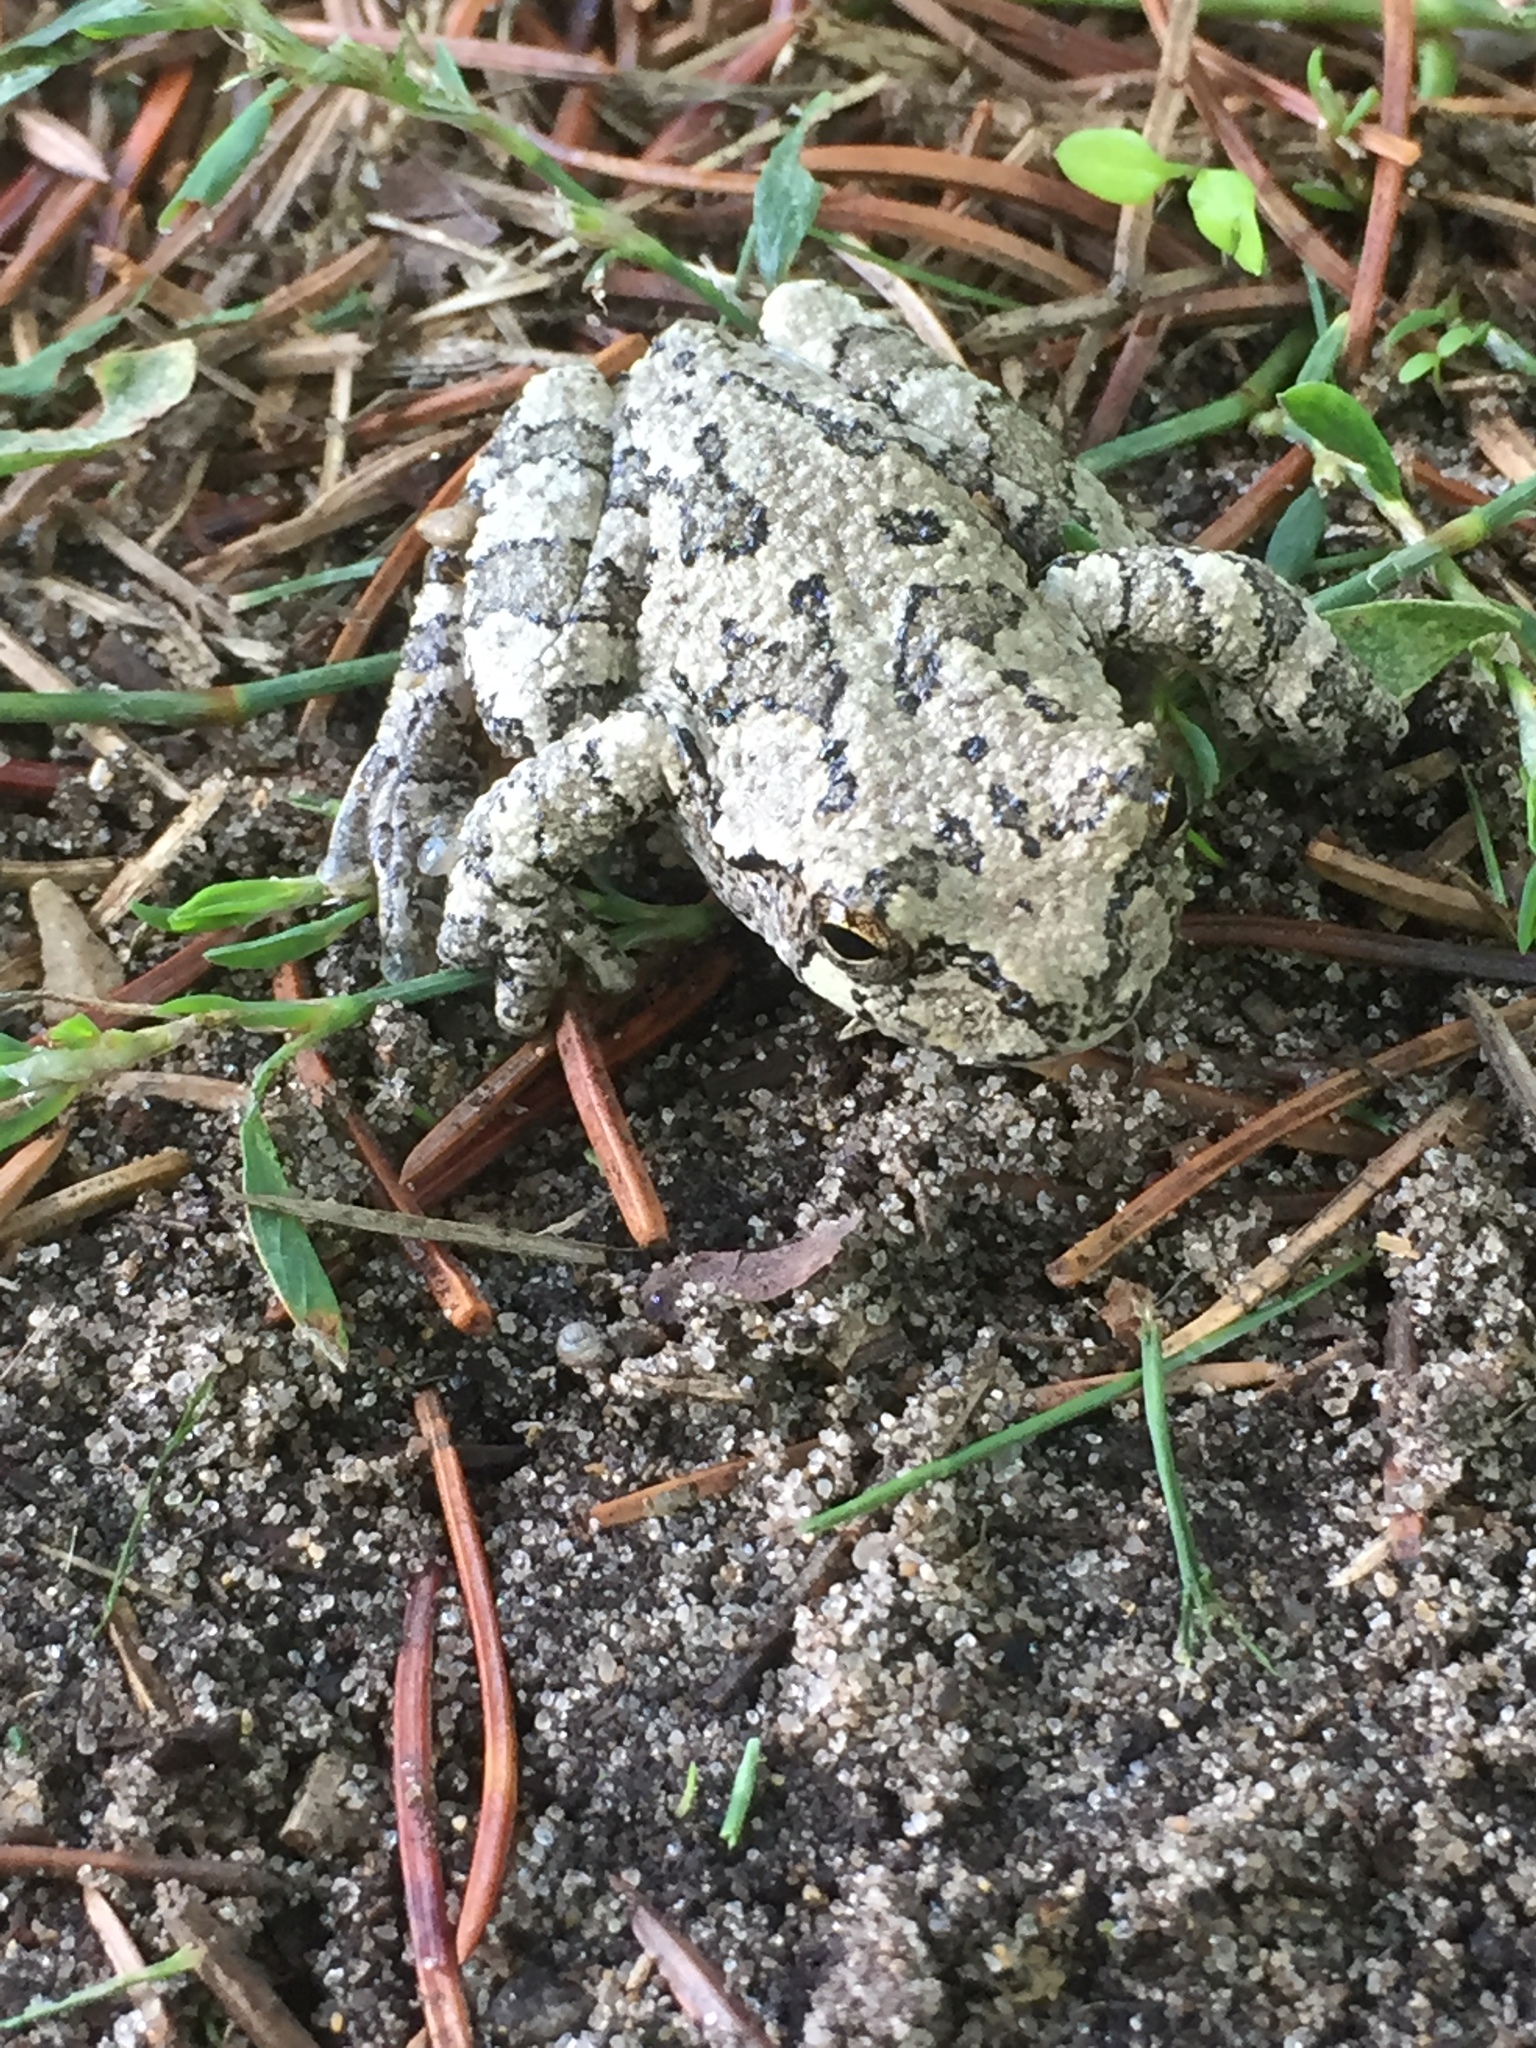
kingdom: Animalia
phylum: Chordata
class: Amphibia
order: Anura
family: Hylidae
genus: Hyla
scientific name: Hyla
